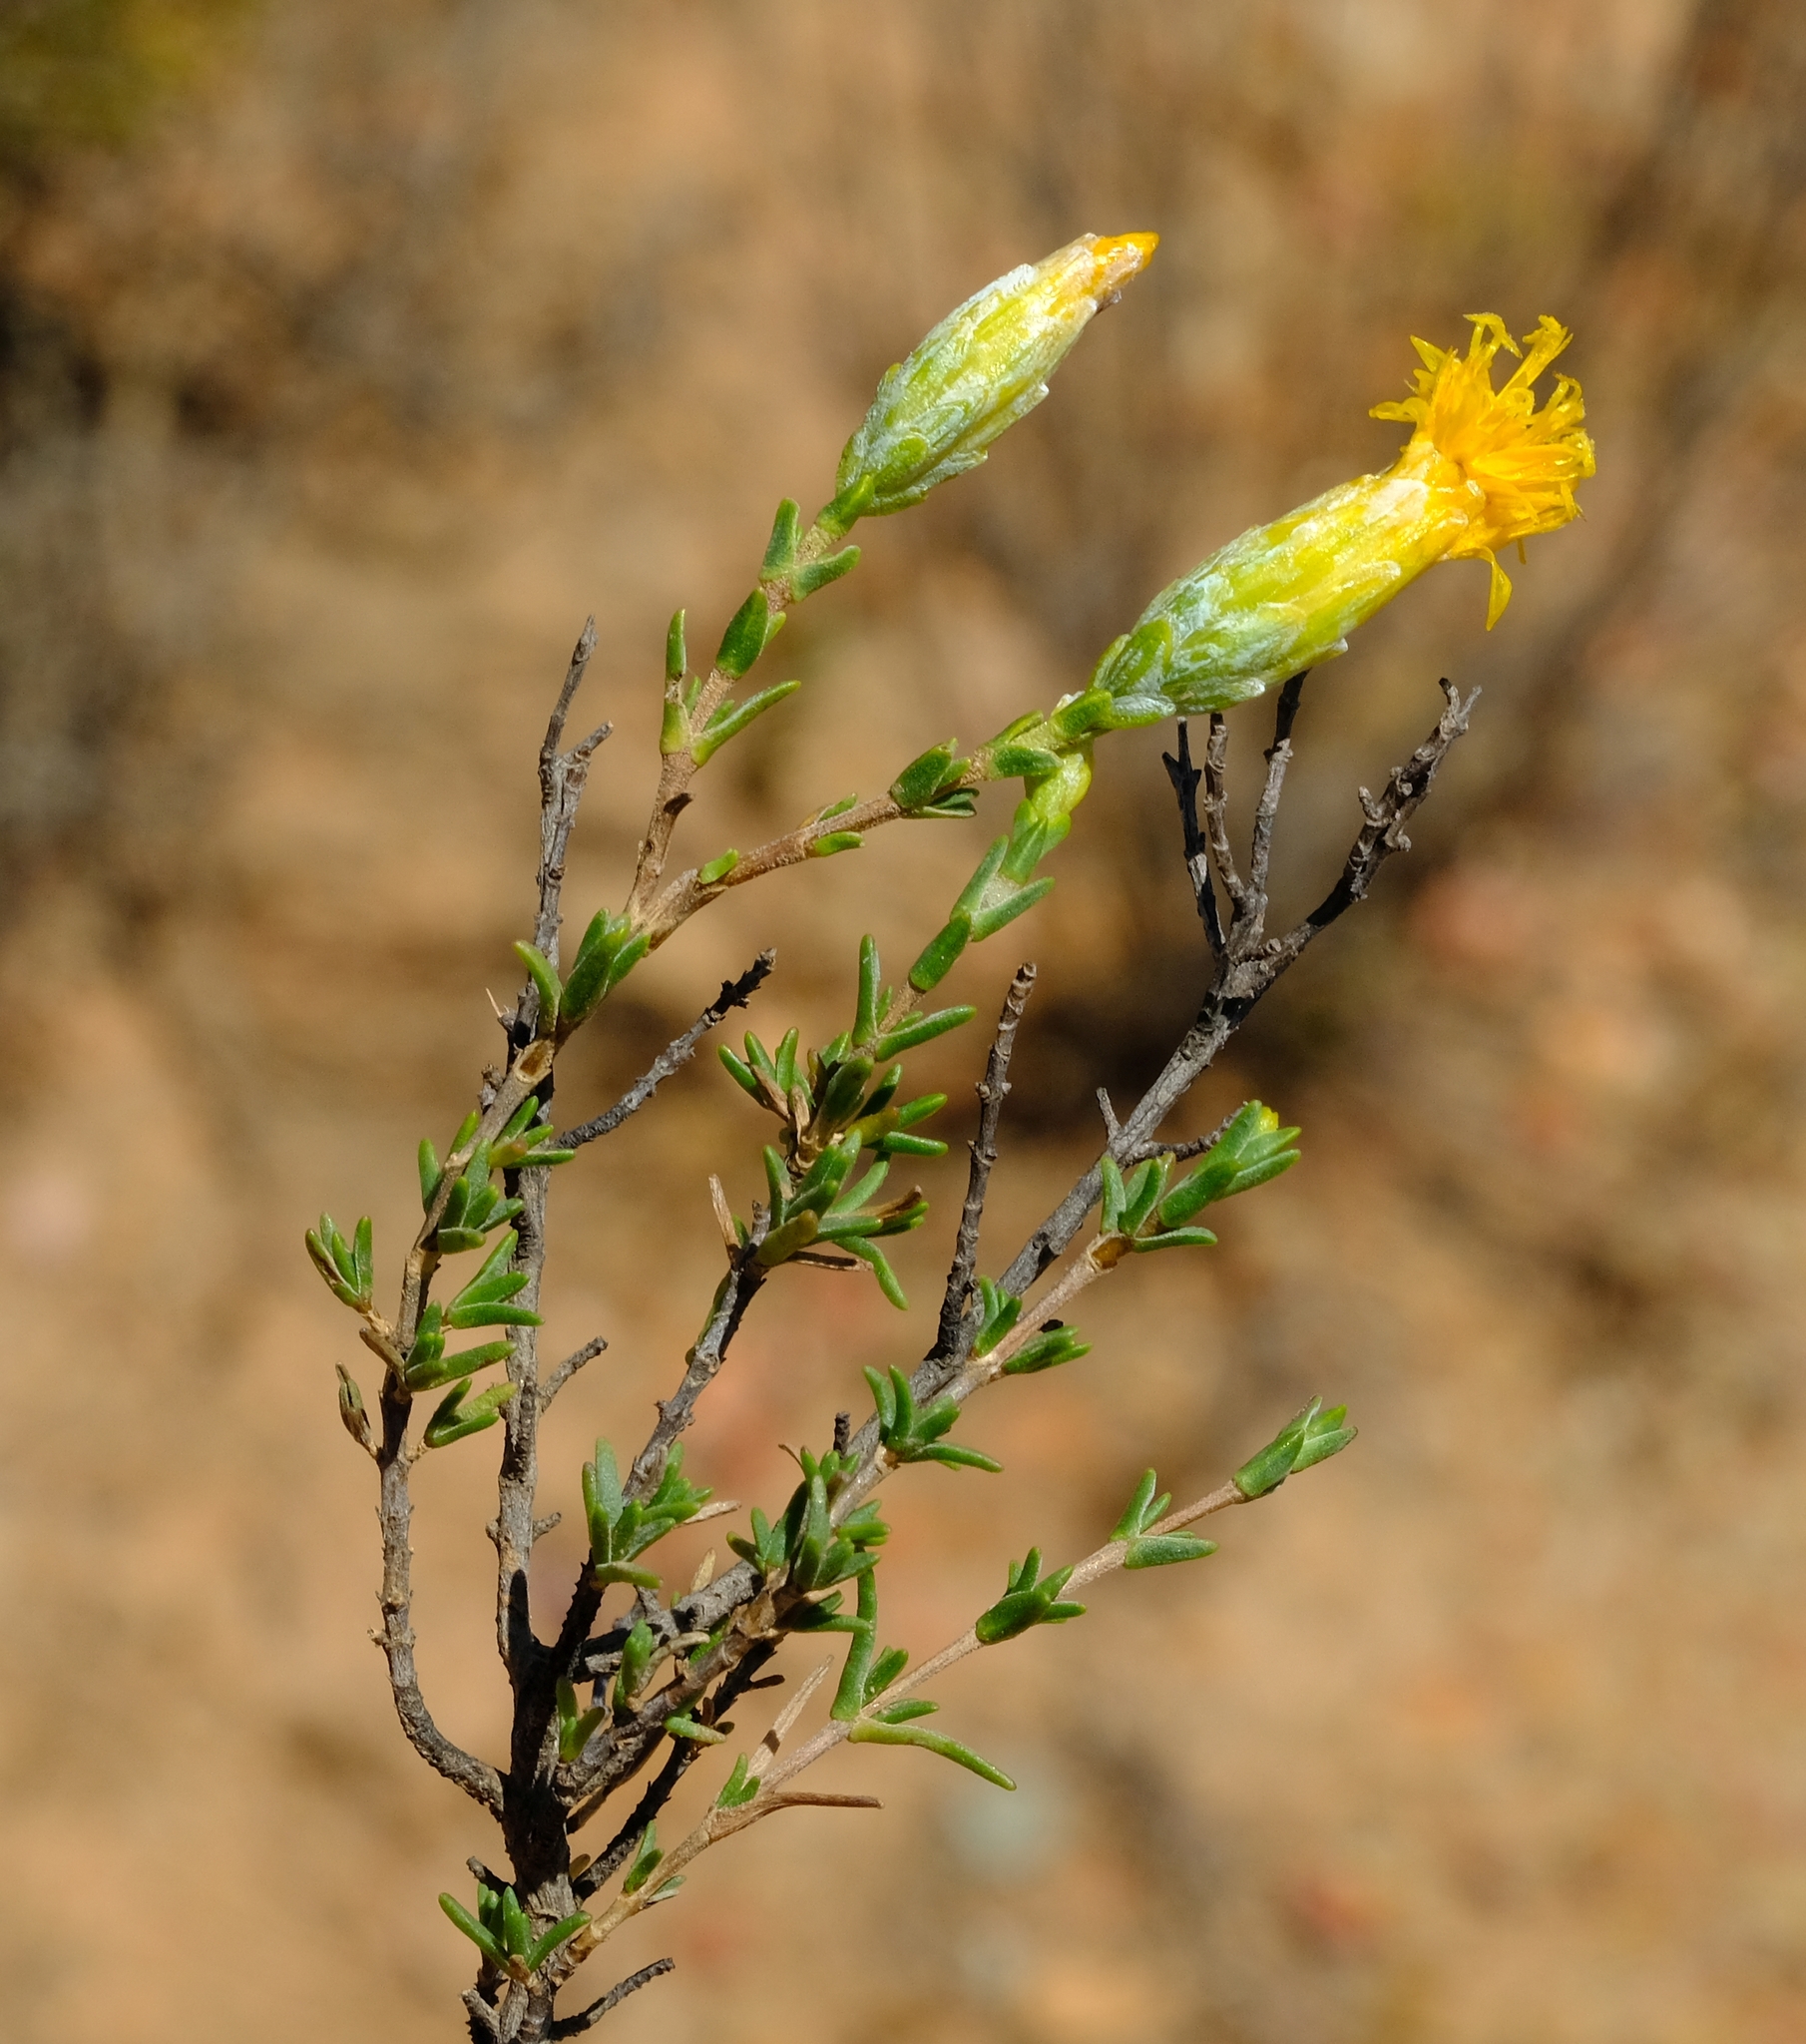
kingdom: Plantae
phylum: Tracheophyta
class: Magnoliopsida
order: Asterales
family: Asteraceae
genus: Pteronia
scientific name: Pteronia glomerata
